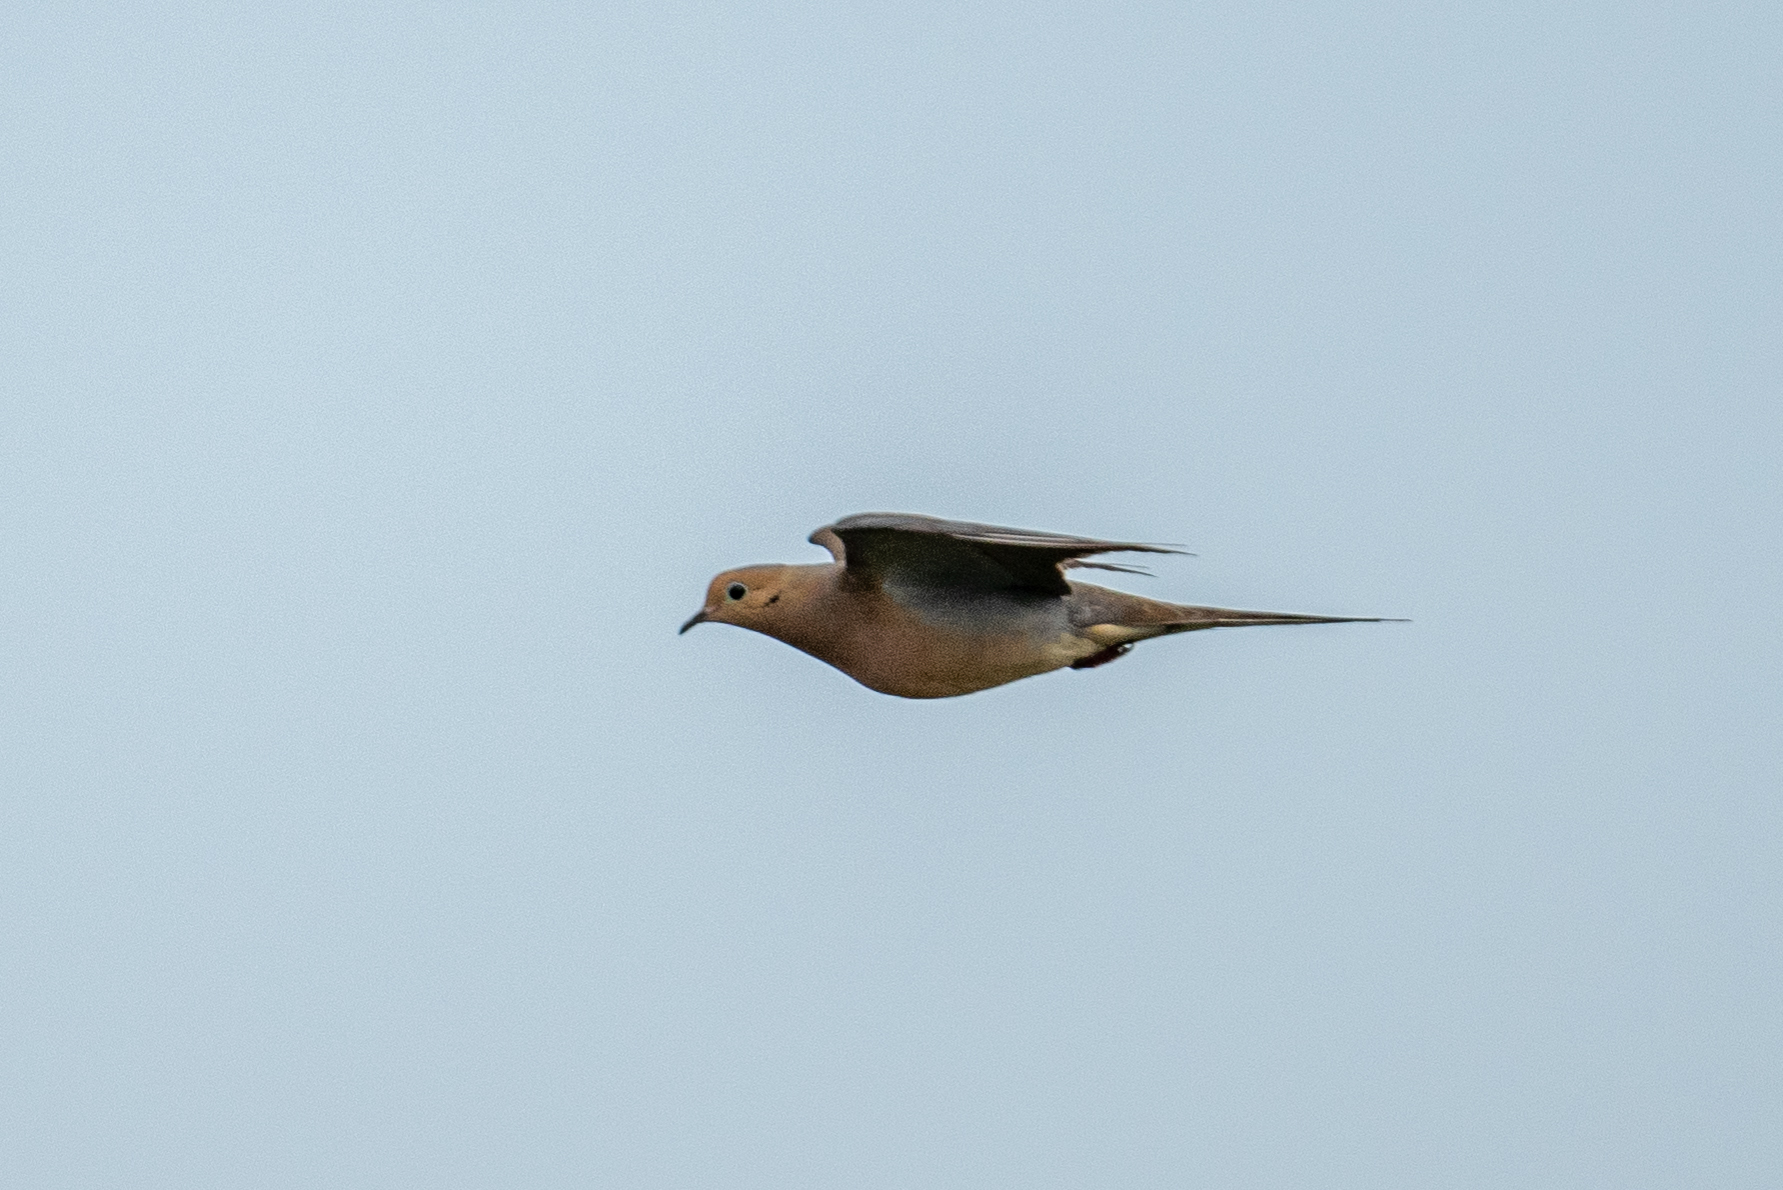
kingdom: Animalia
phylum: Chordata
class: Aves
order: Columbiformes
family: Columbidae
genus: Zenaida
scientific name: Zenaida macroura
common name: Mourning dove
